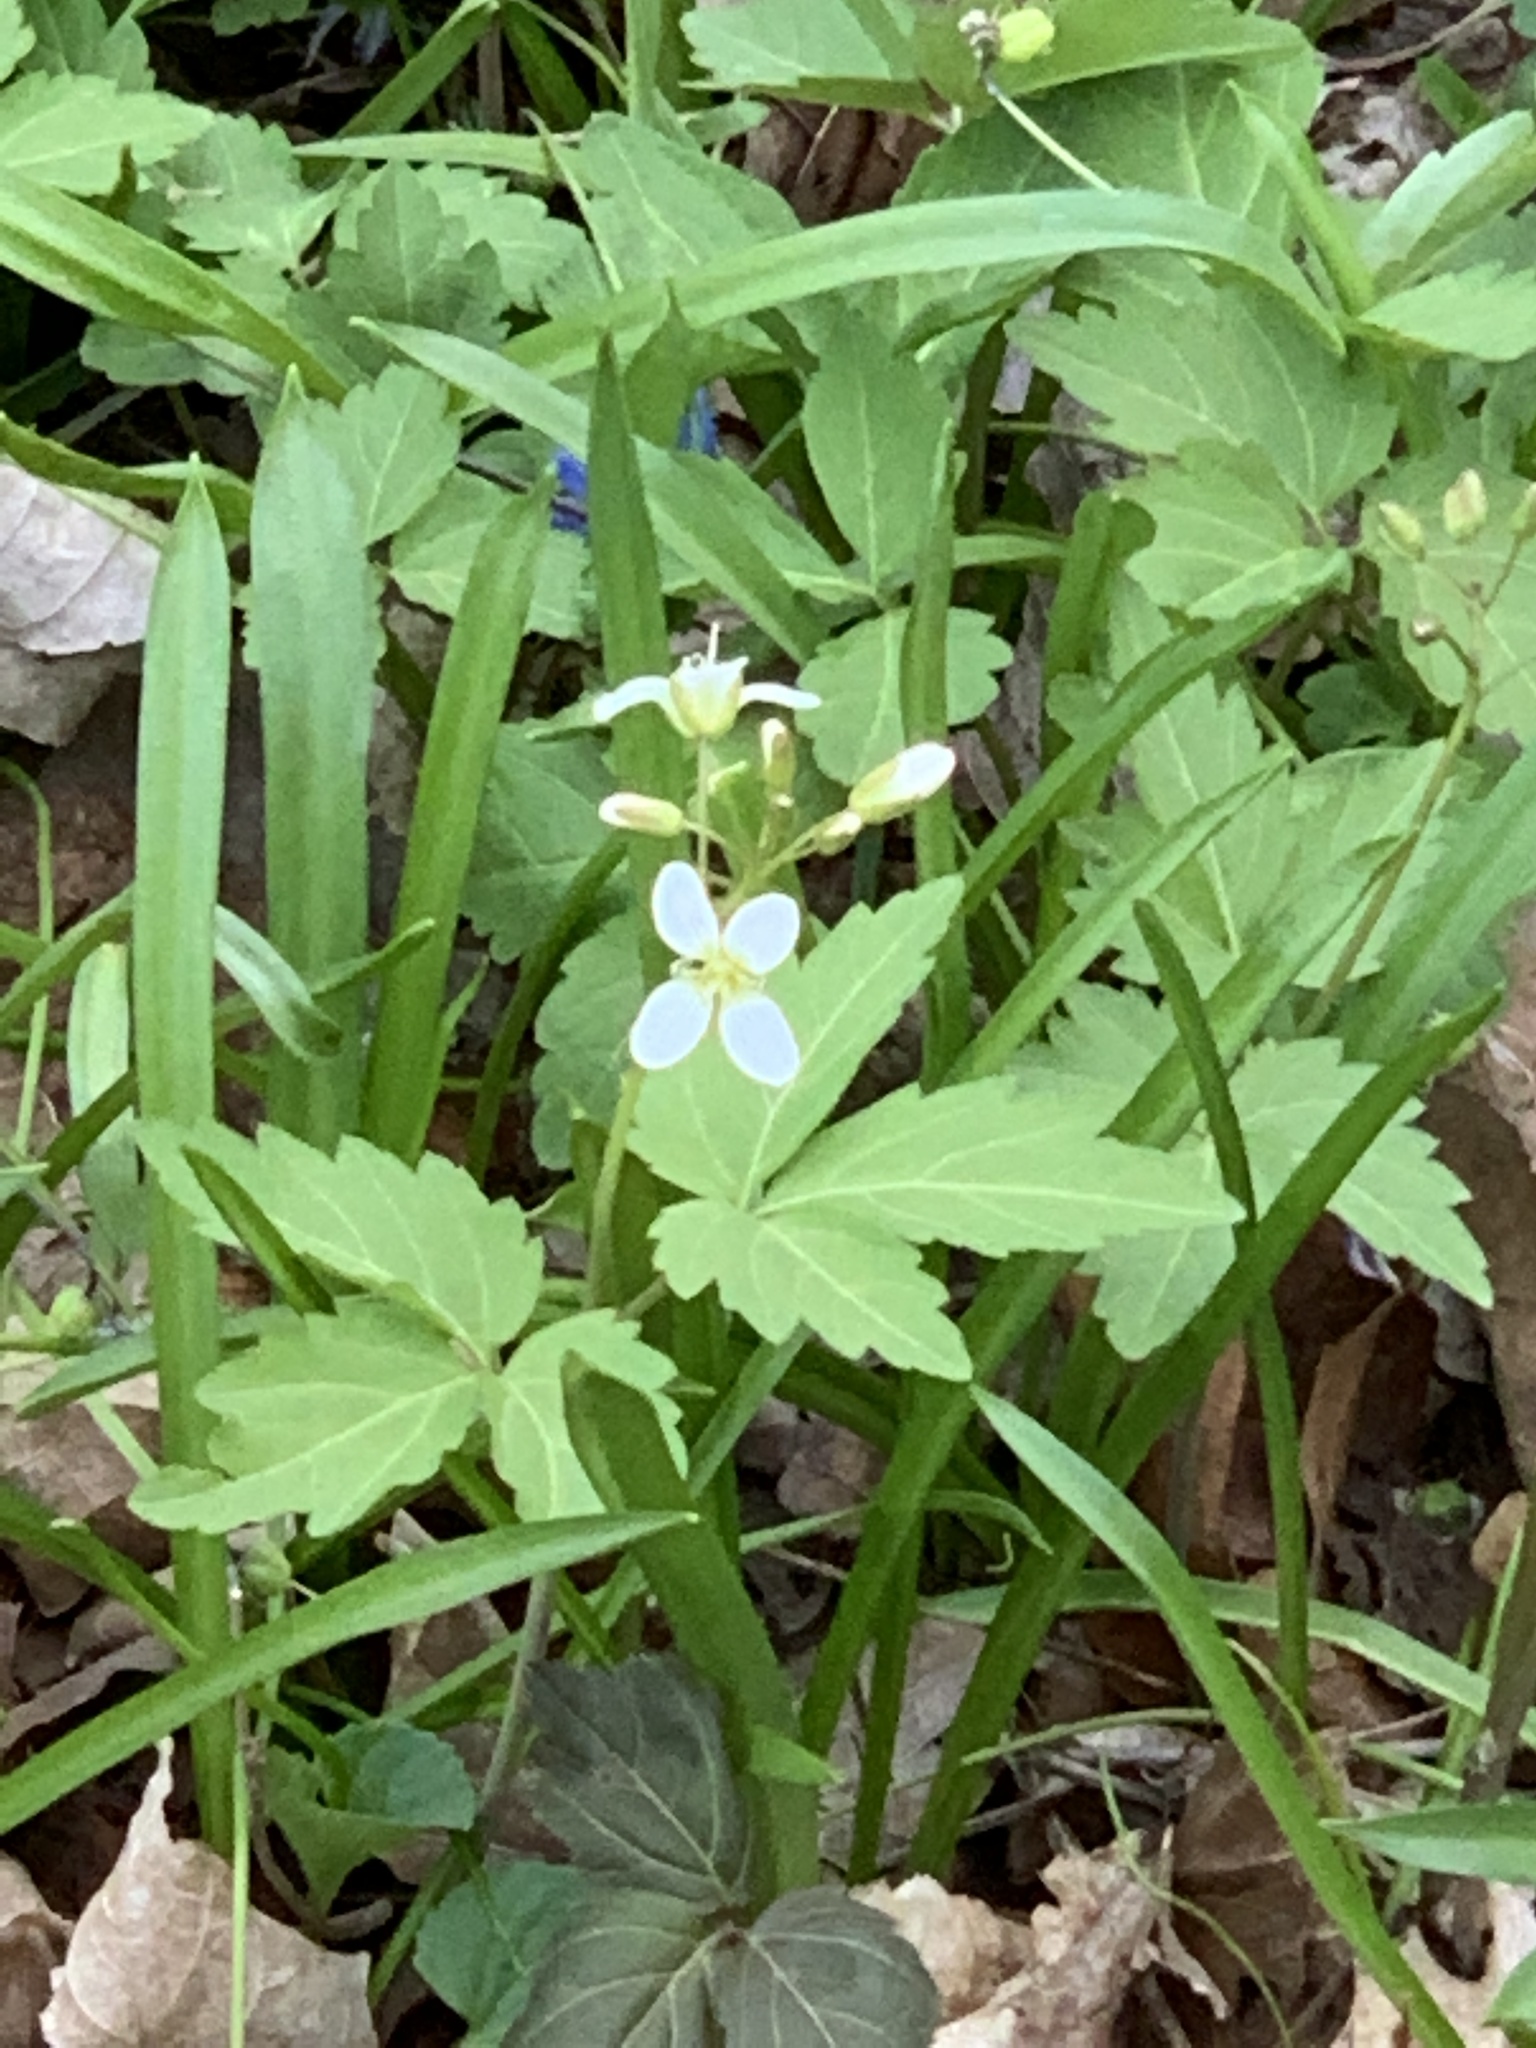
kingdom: Plantae
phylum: Tracheophyta
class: Magnoliopsida
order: Brassicales
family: Brassicaceae
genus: Cardamine
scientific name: Cardamine diphylla
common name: Broad-leaved toothwort
